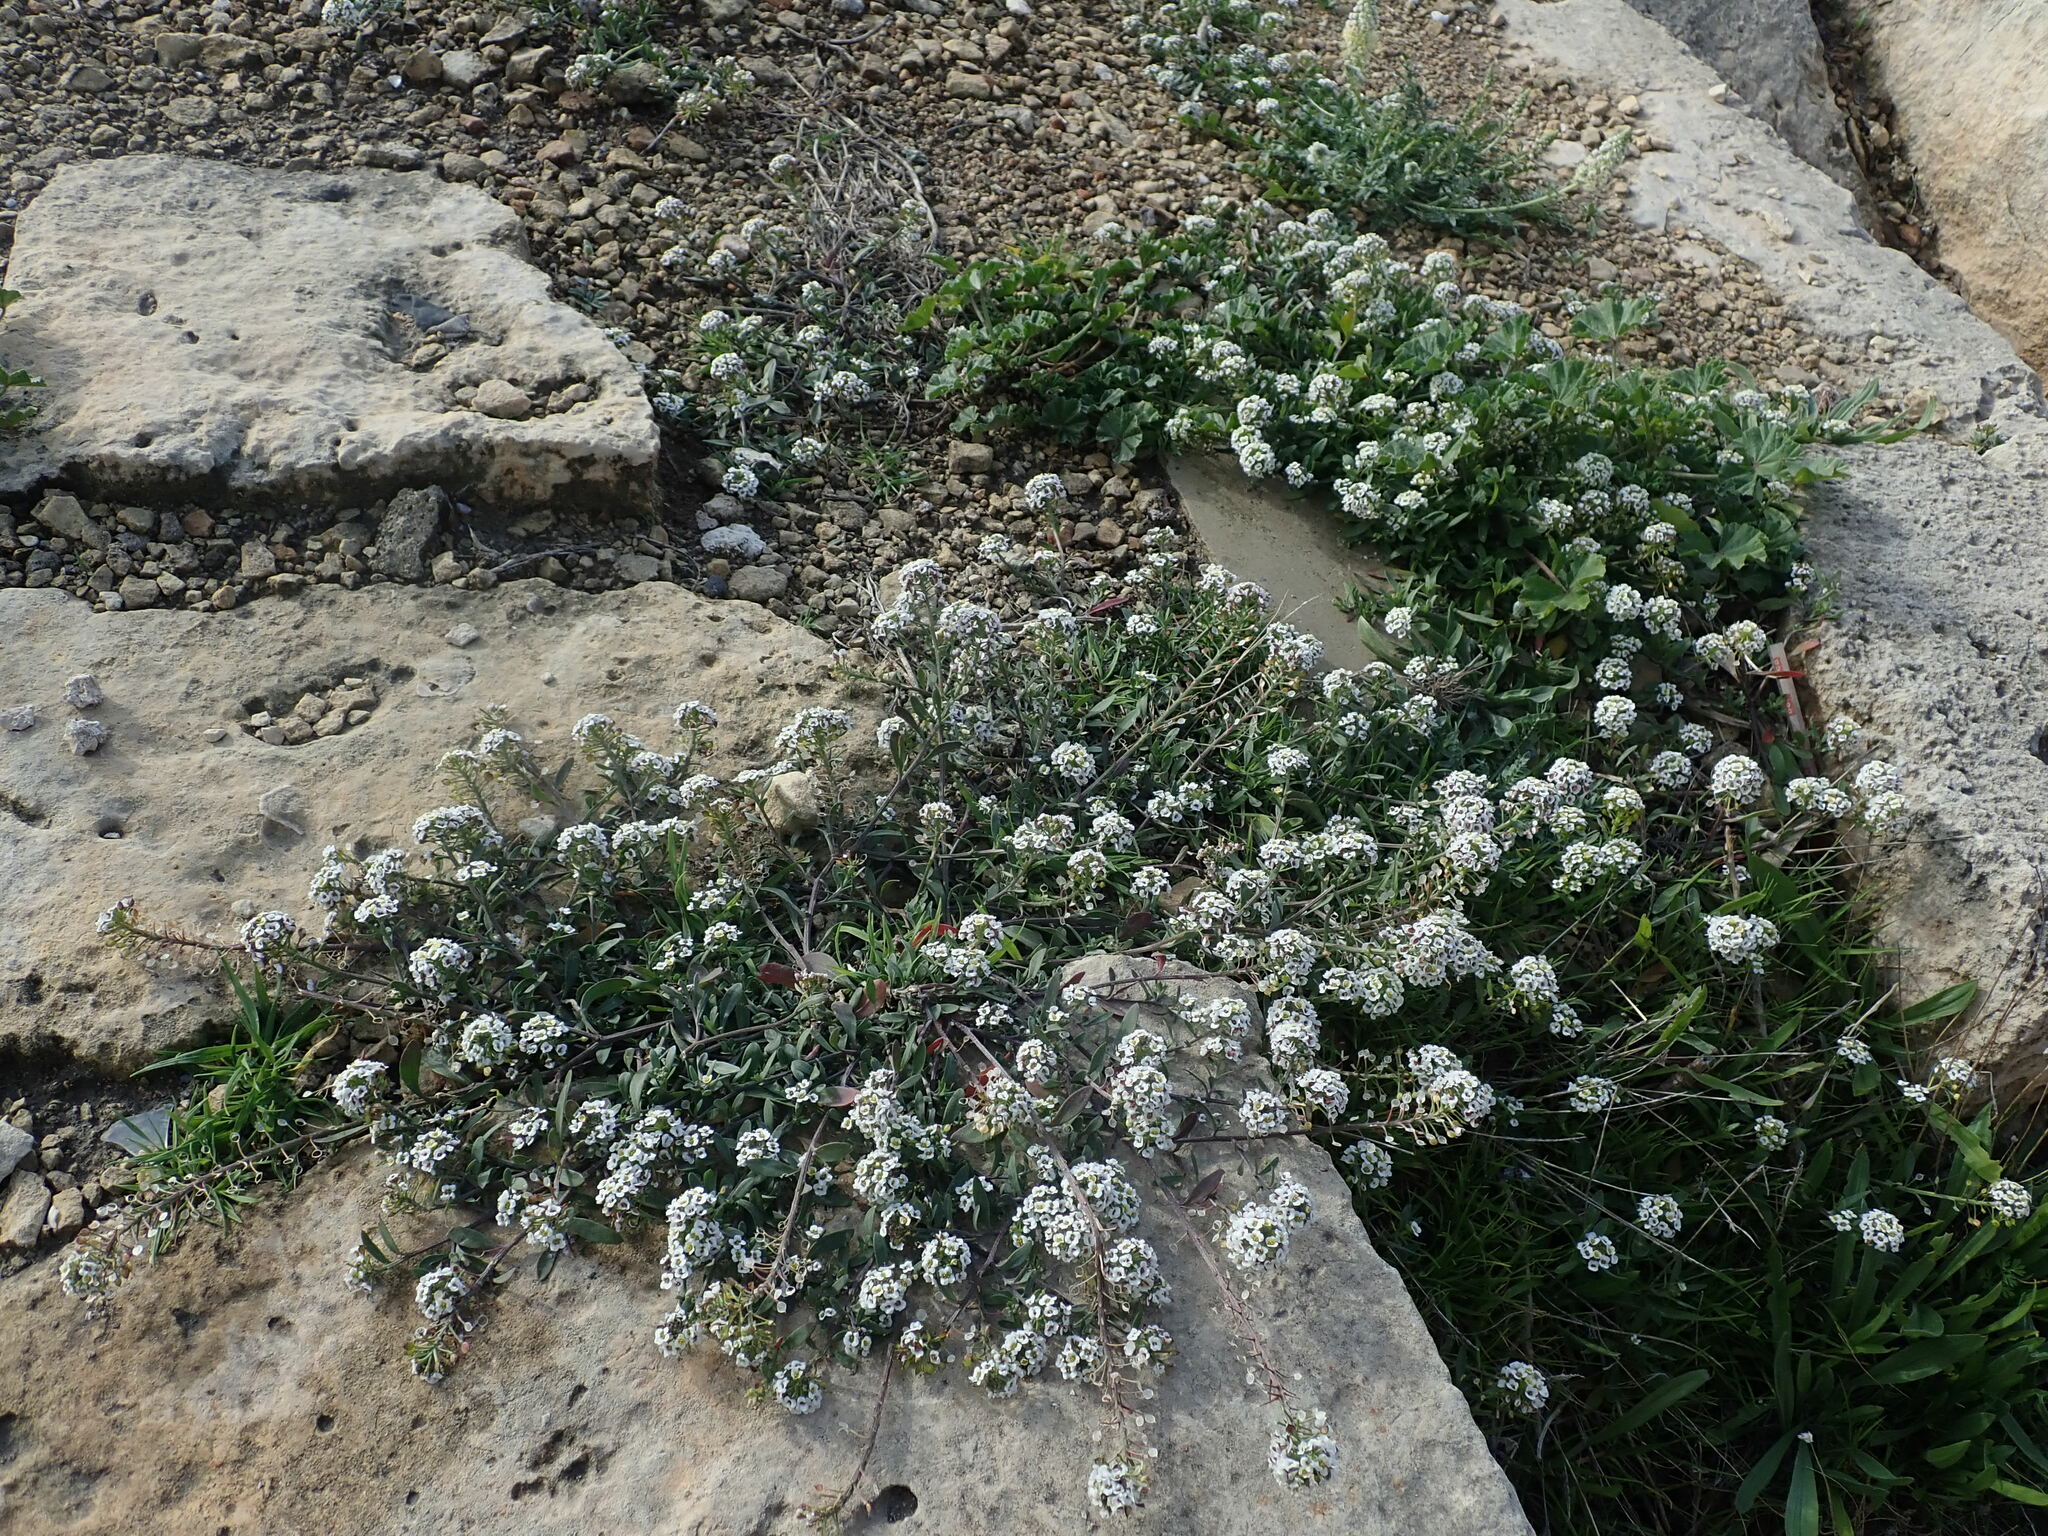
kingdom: Plantae
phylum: Tracheophyta
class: Magnoliopsida
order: Brassicales
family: Brassicaceae
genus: Lobularia
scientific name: Lobularia maritima
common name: Sweet alison
